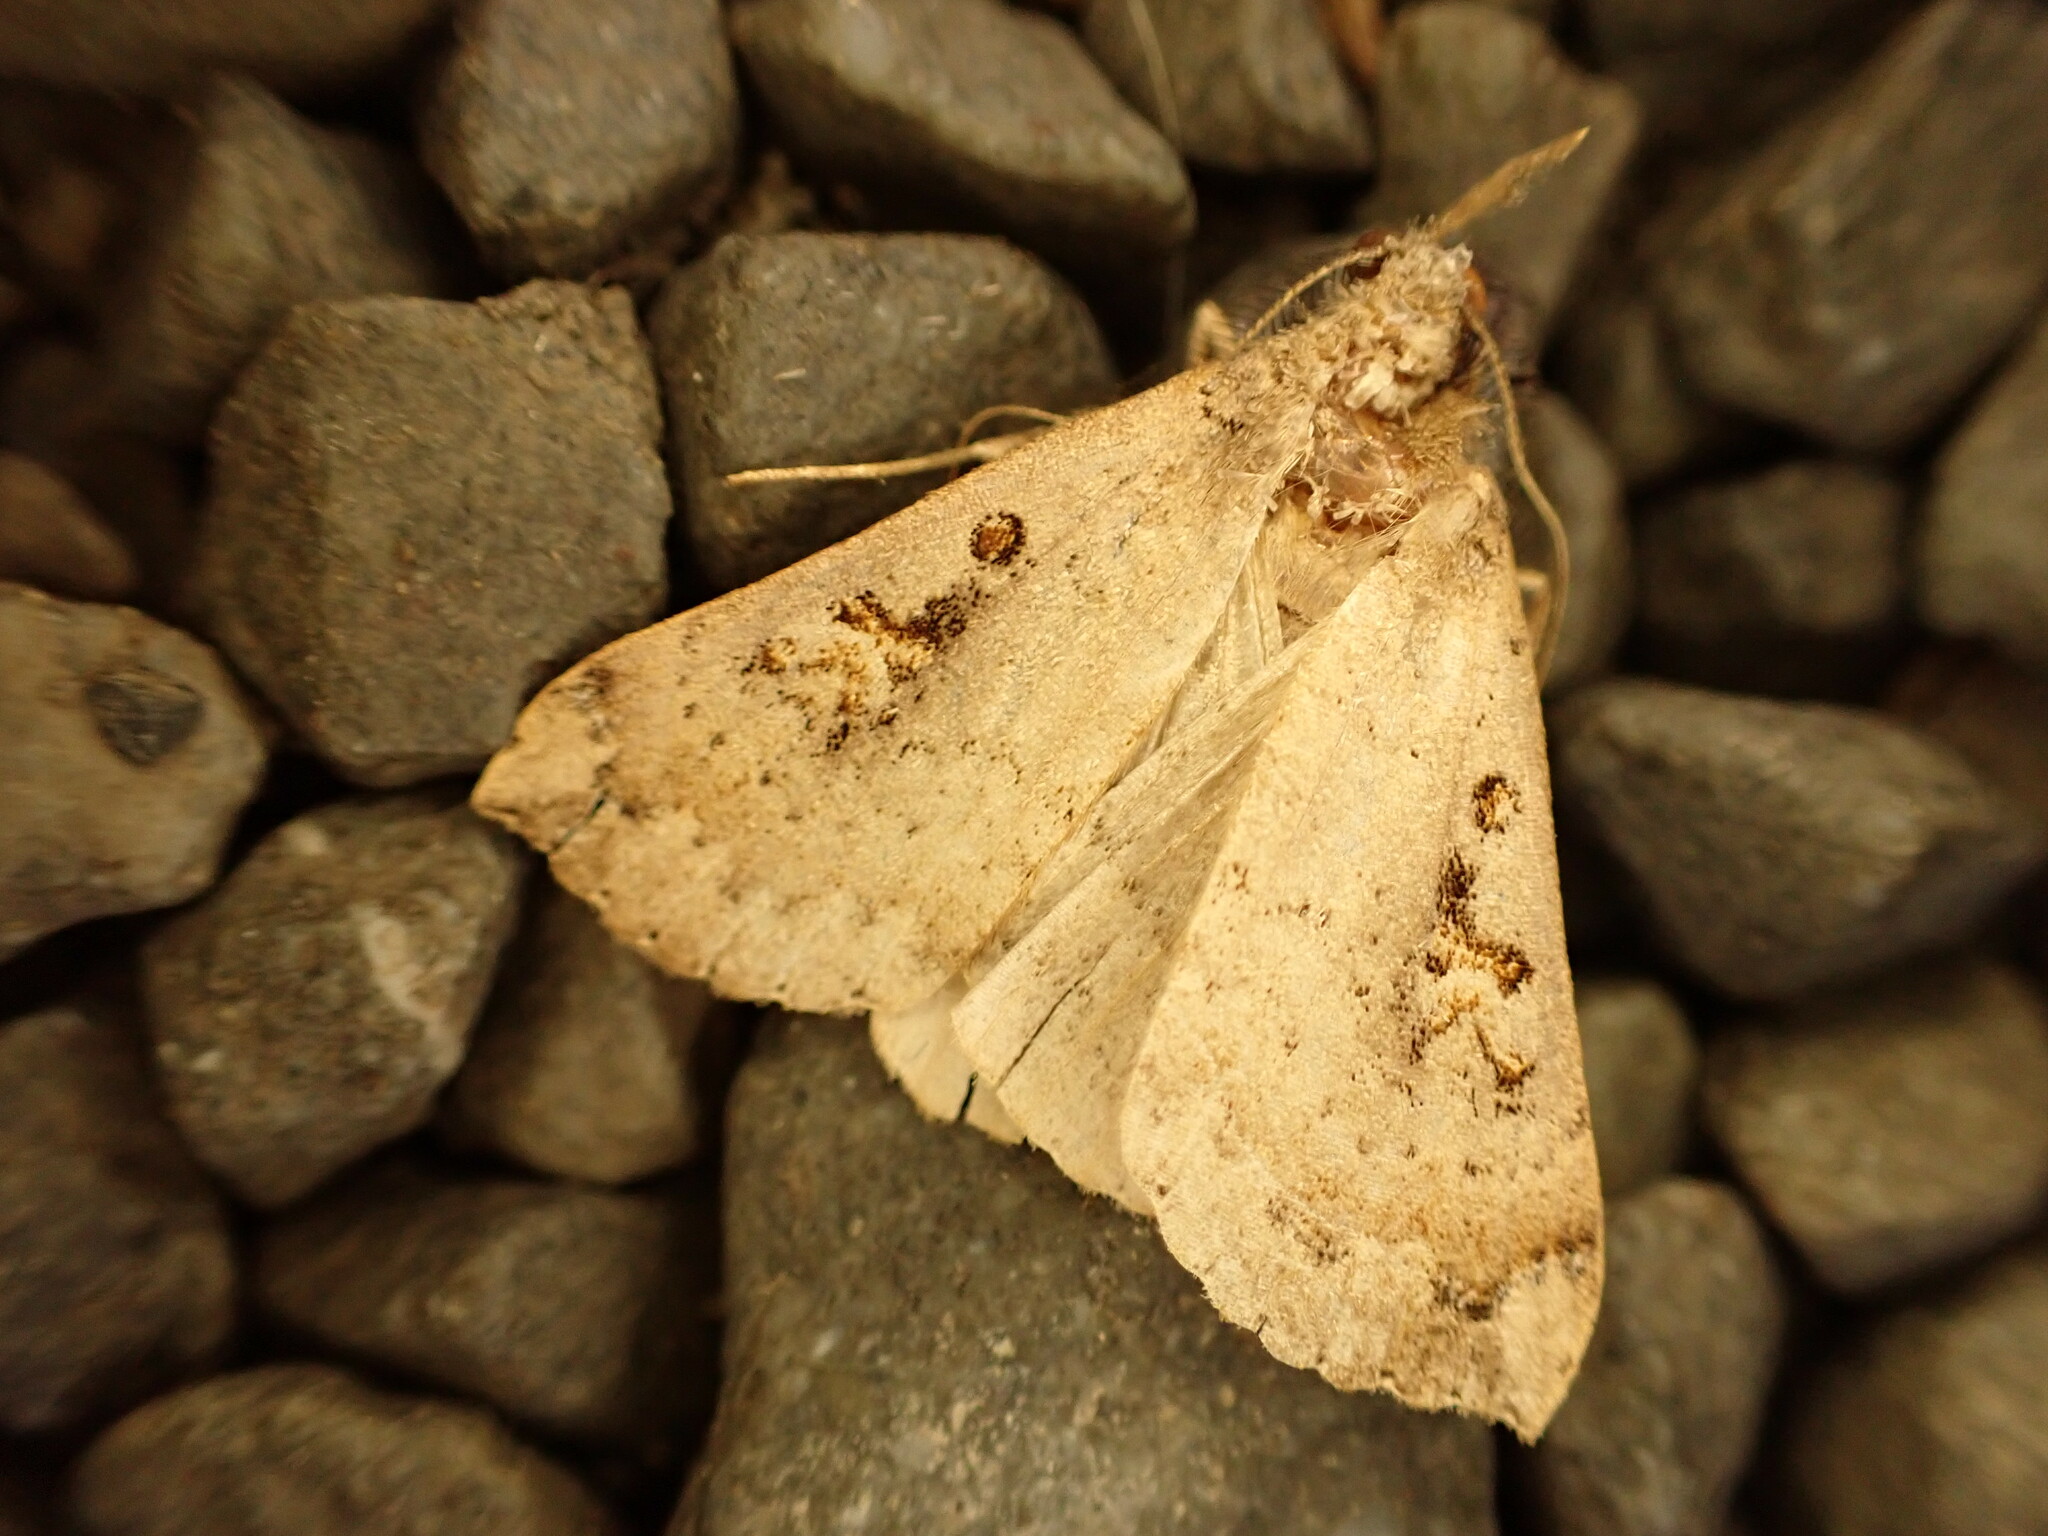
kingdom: Animalia
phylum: Arthropoda
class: Insecta
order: Lepidoptera
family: Erebidae
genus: Rhapsa
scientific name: Rhapsa scotosialis
